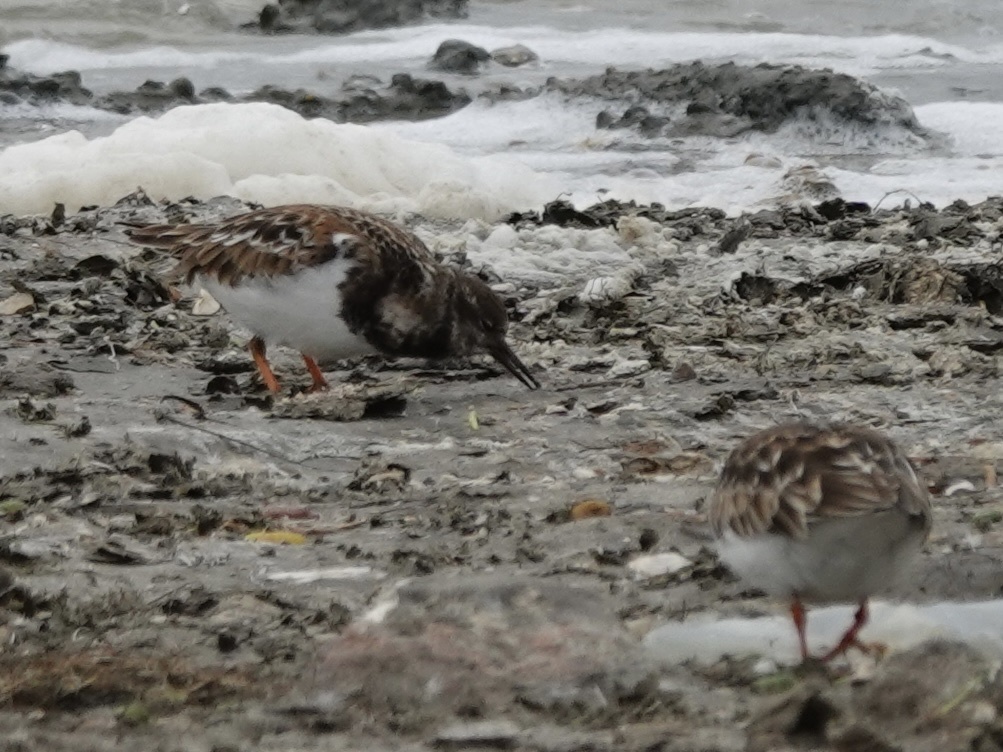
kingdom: Animalia
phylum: Chordata
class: Aves
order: Charadriiformes
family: Scolopacidae
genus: Arenaria
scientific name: Arenaria interpres
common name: Ruddy turnstone
